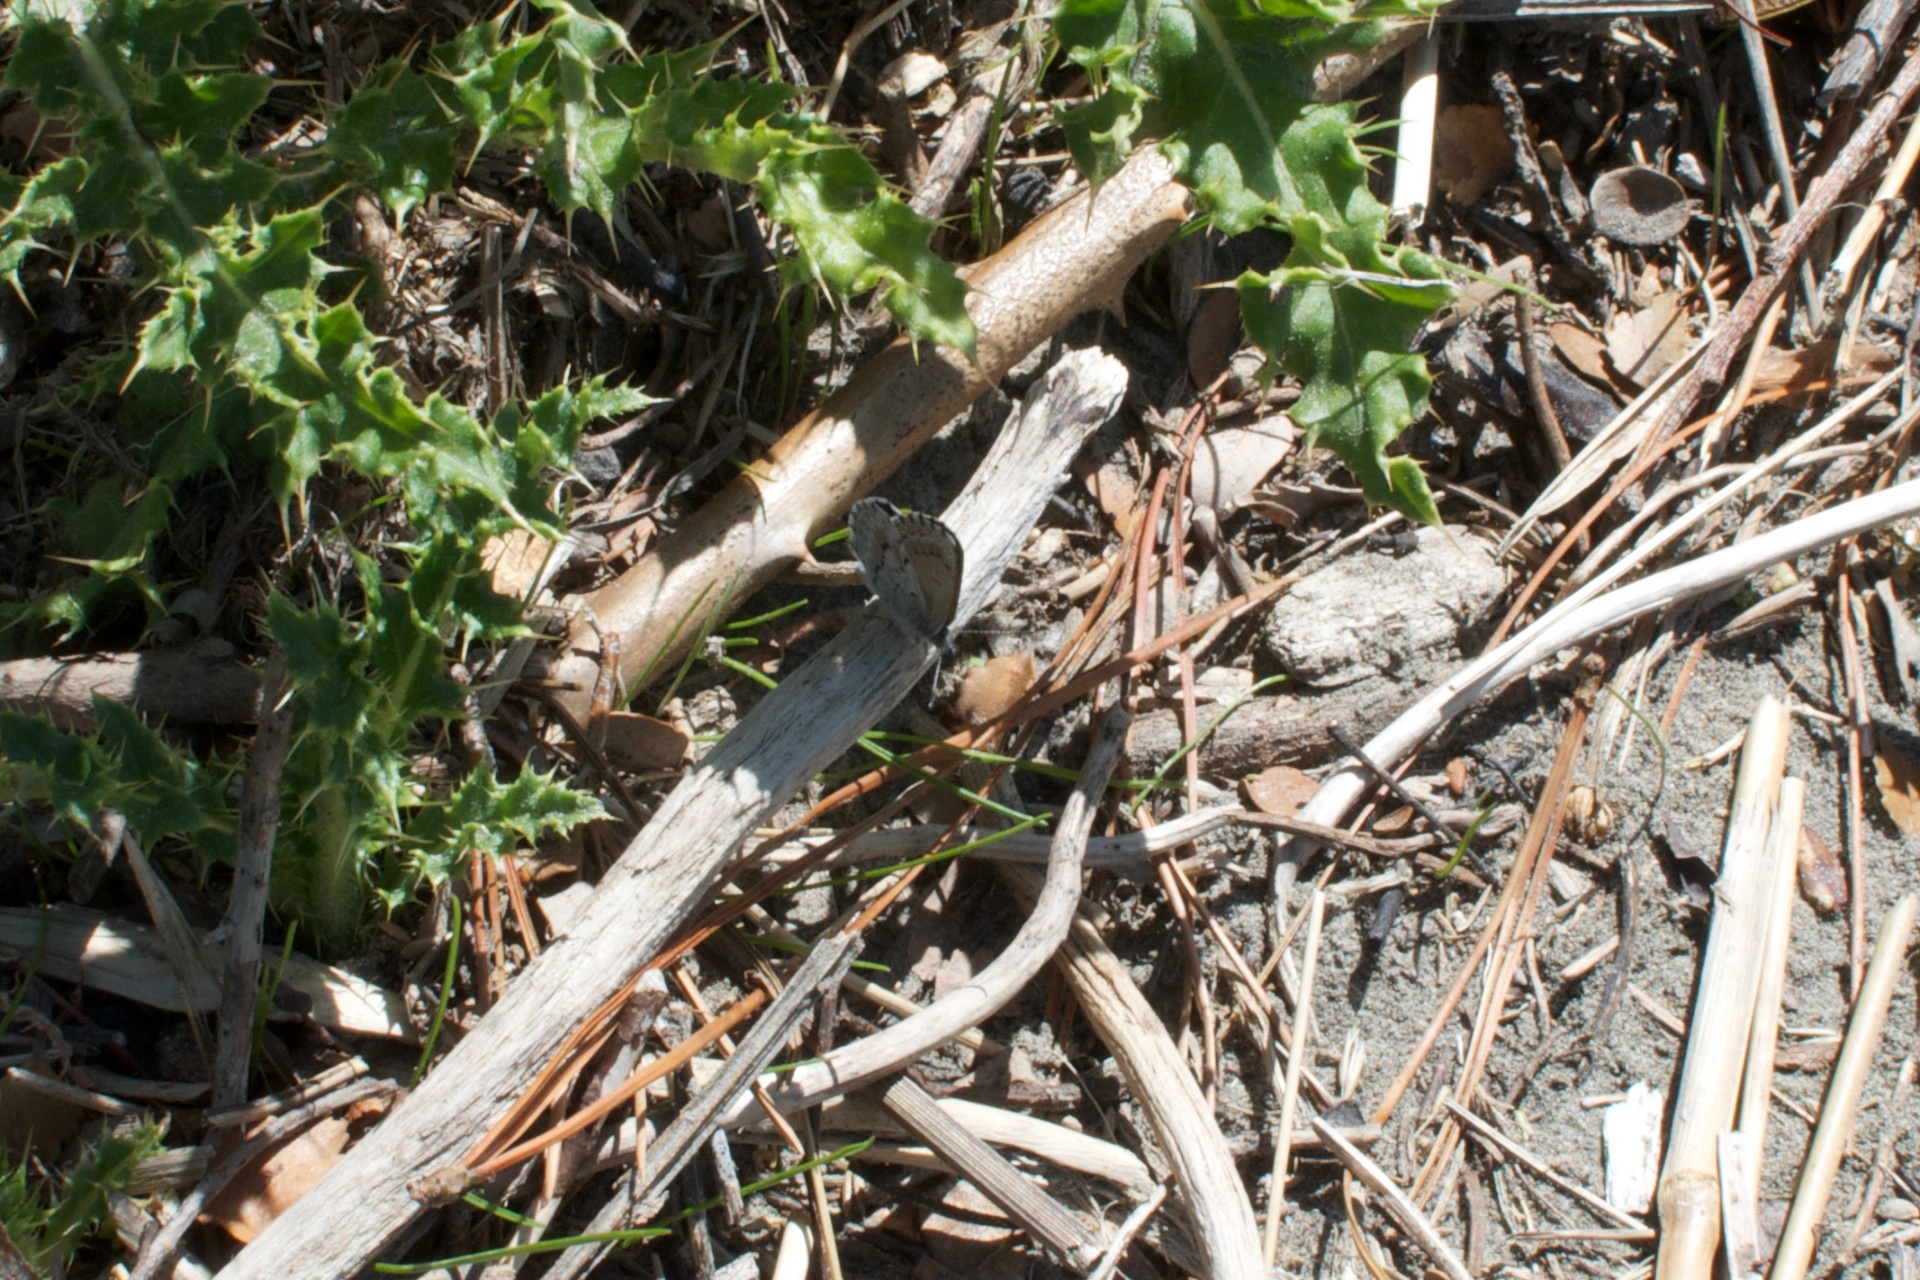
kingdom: Animalia
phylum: Arthropoda
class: Insecta
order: Lepidoptera
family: Lycaenidae
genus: Zizina
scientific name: Zizina oxleyi
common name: Southern blue
